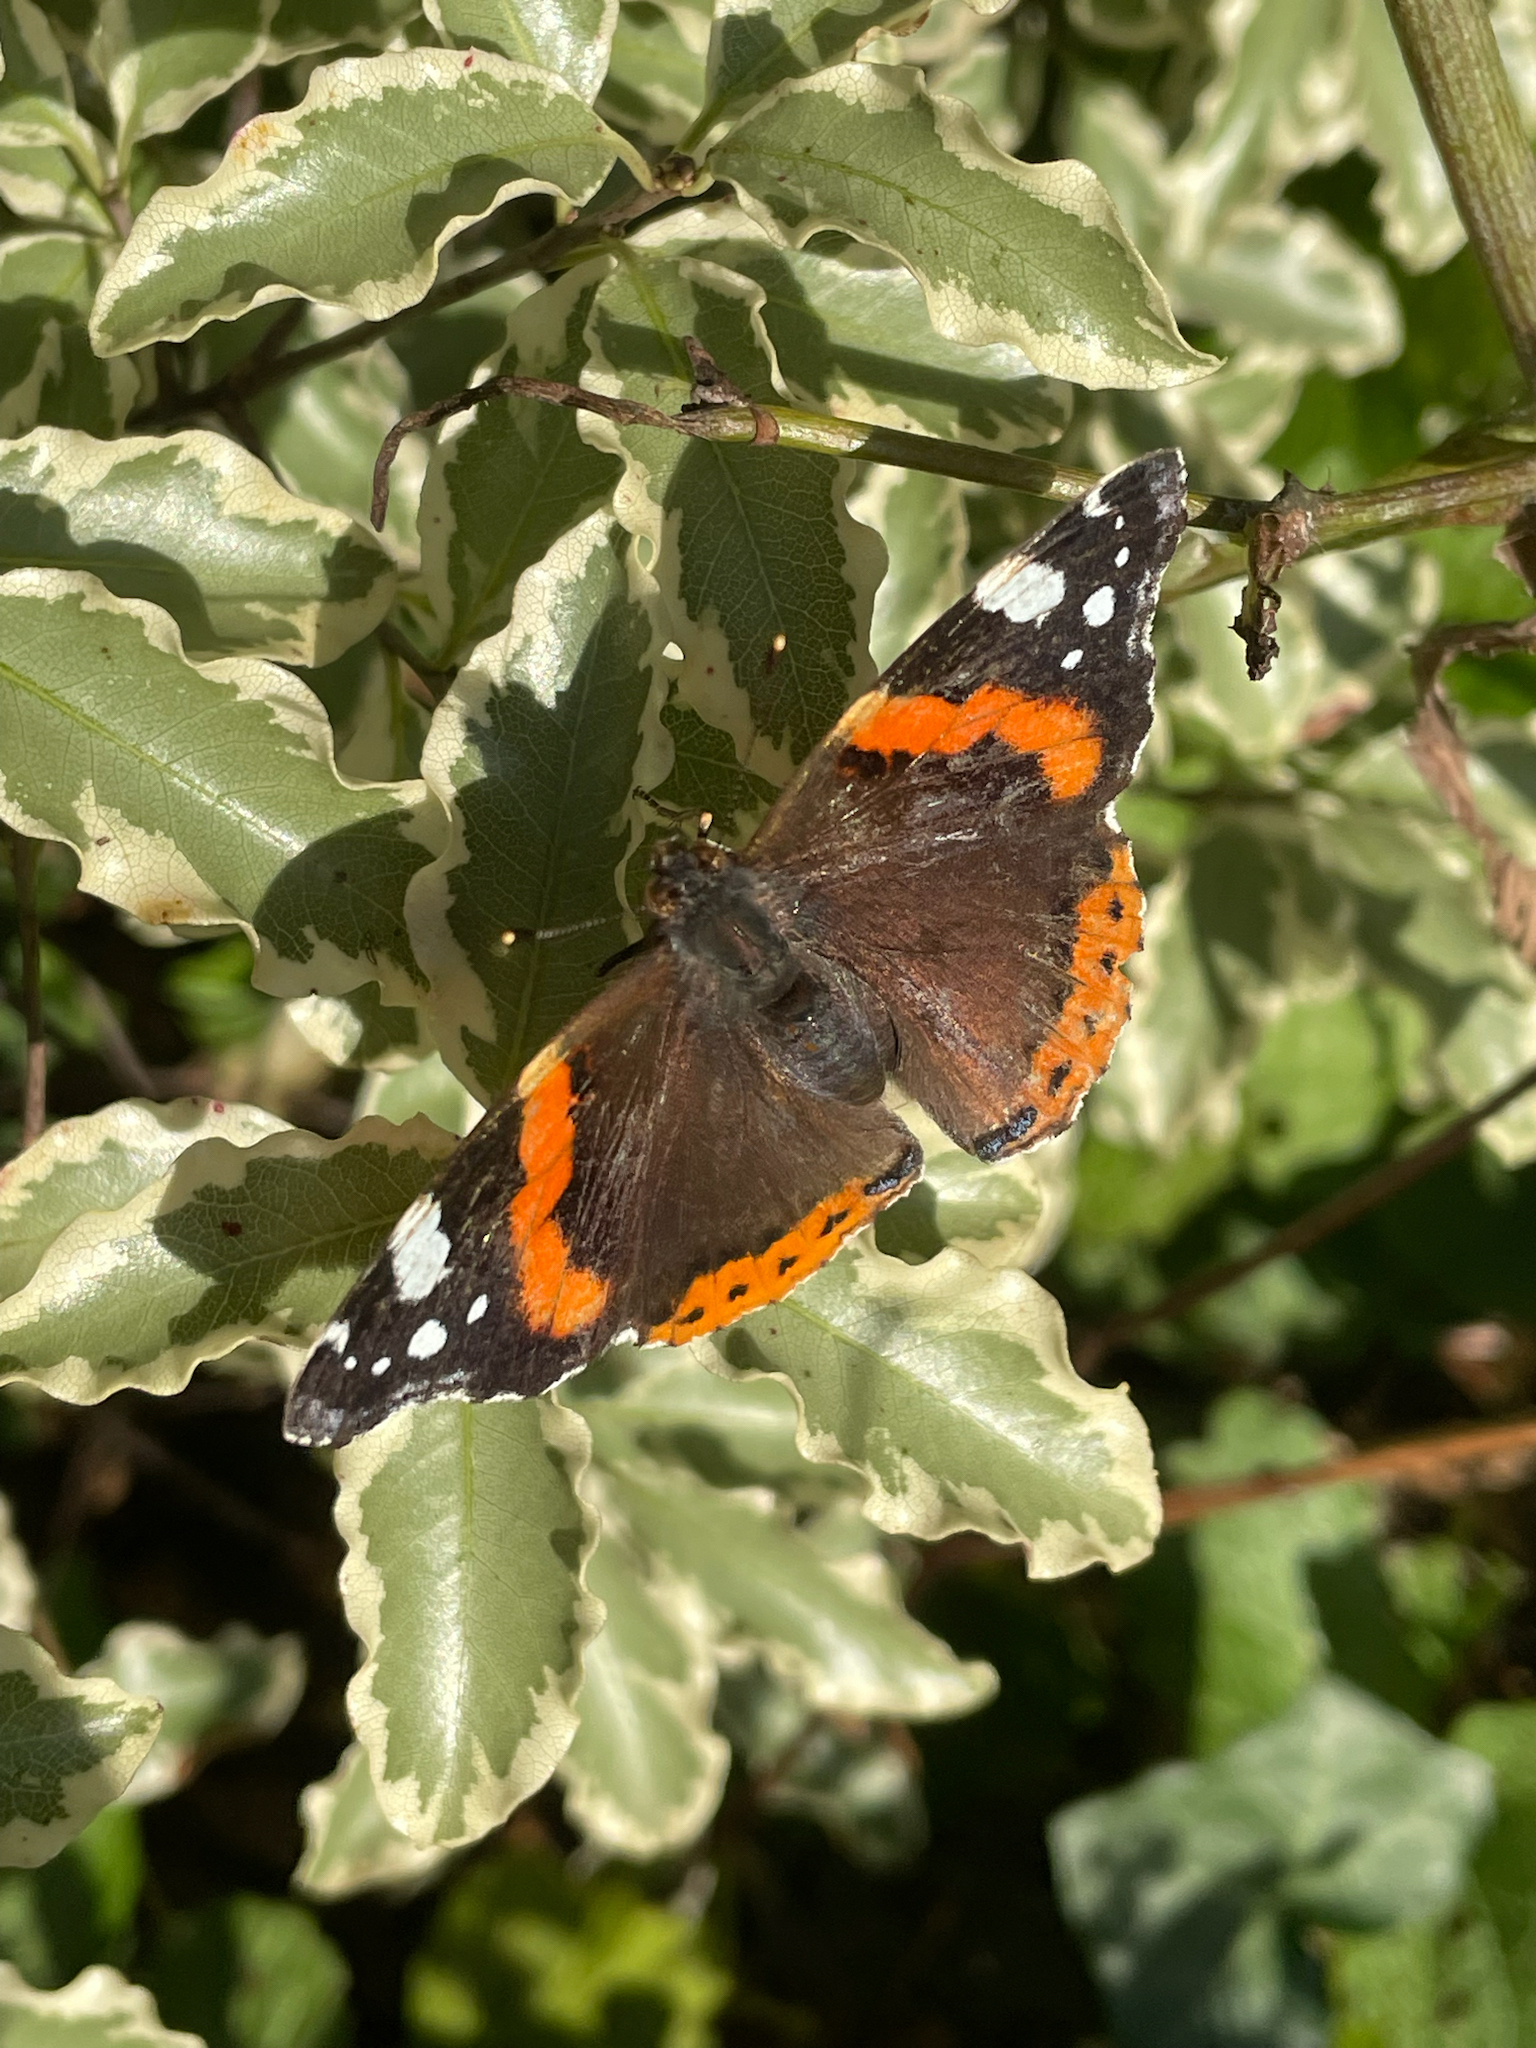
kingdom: Animalia
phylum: Arthropoda
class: Insecta
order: Lepidoptera
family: Nymphalidae
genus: Vanessa
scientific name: Vanessa atalanta
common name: Red admiral
